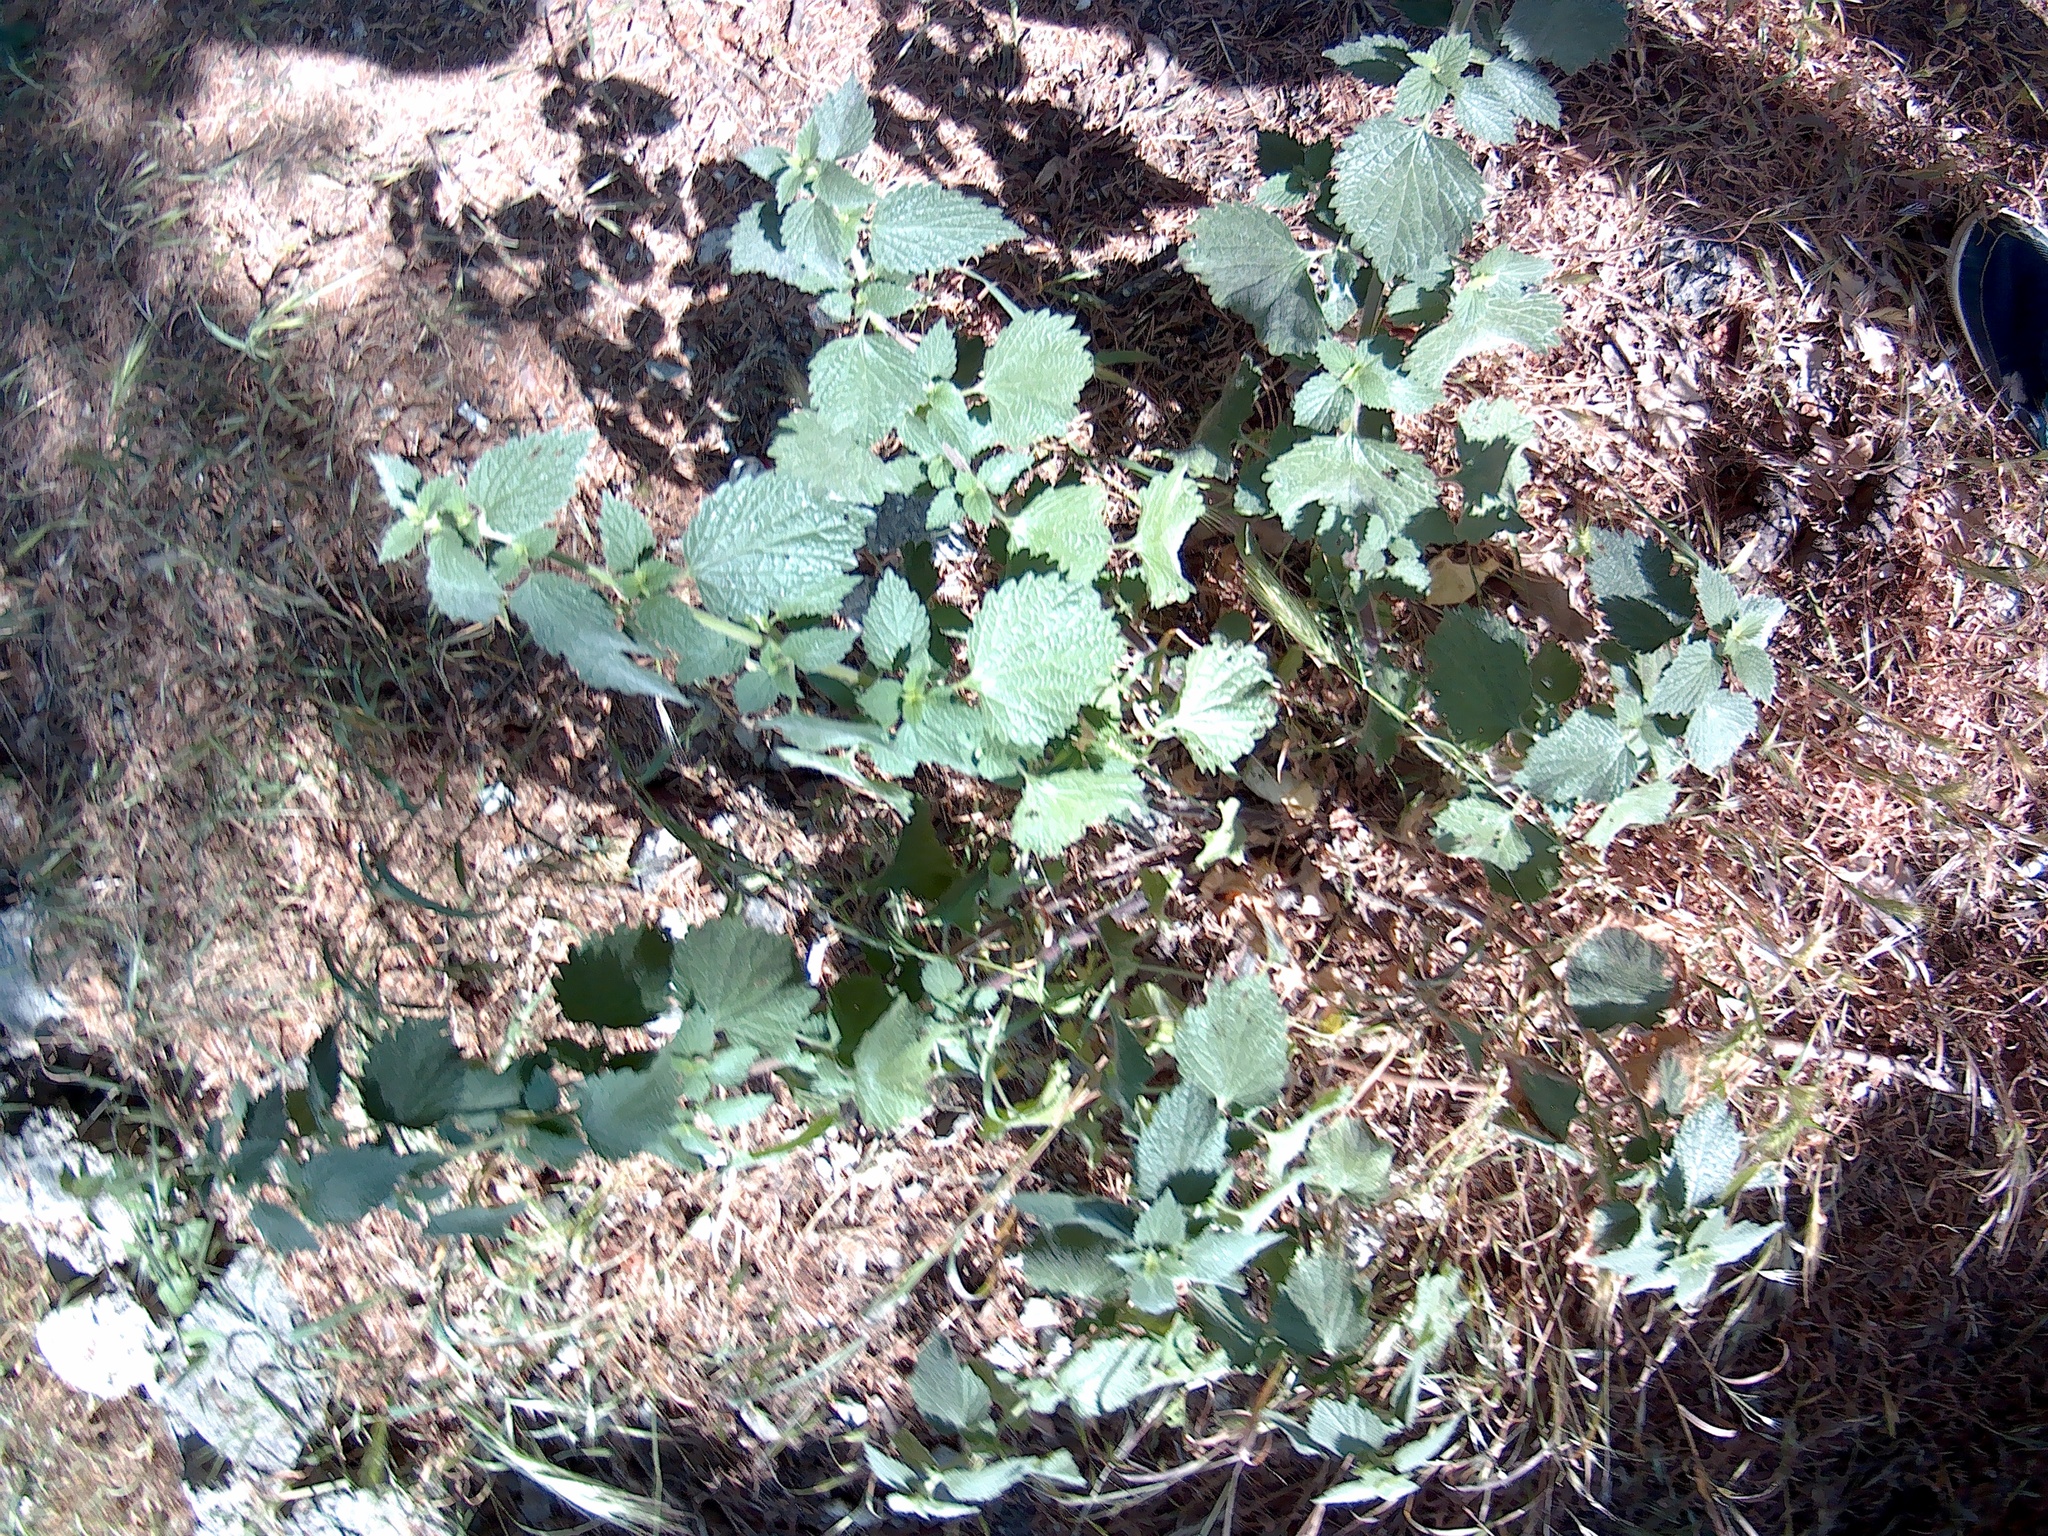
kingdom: Plantae
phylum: Tracheophyta
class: Magnoliopsida
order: Lamiales
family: Lamiaceae
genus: Ballota
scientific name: Ballota nigra
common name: Black horehound
